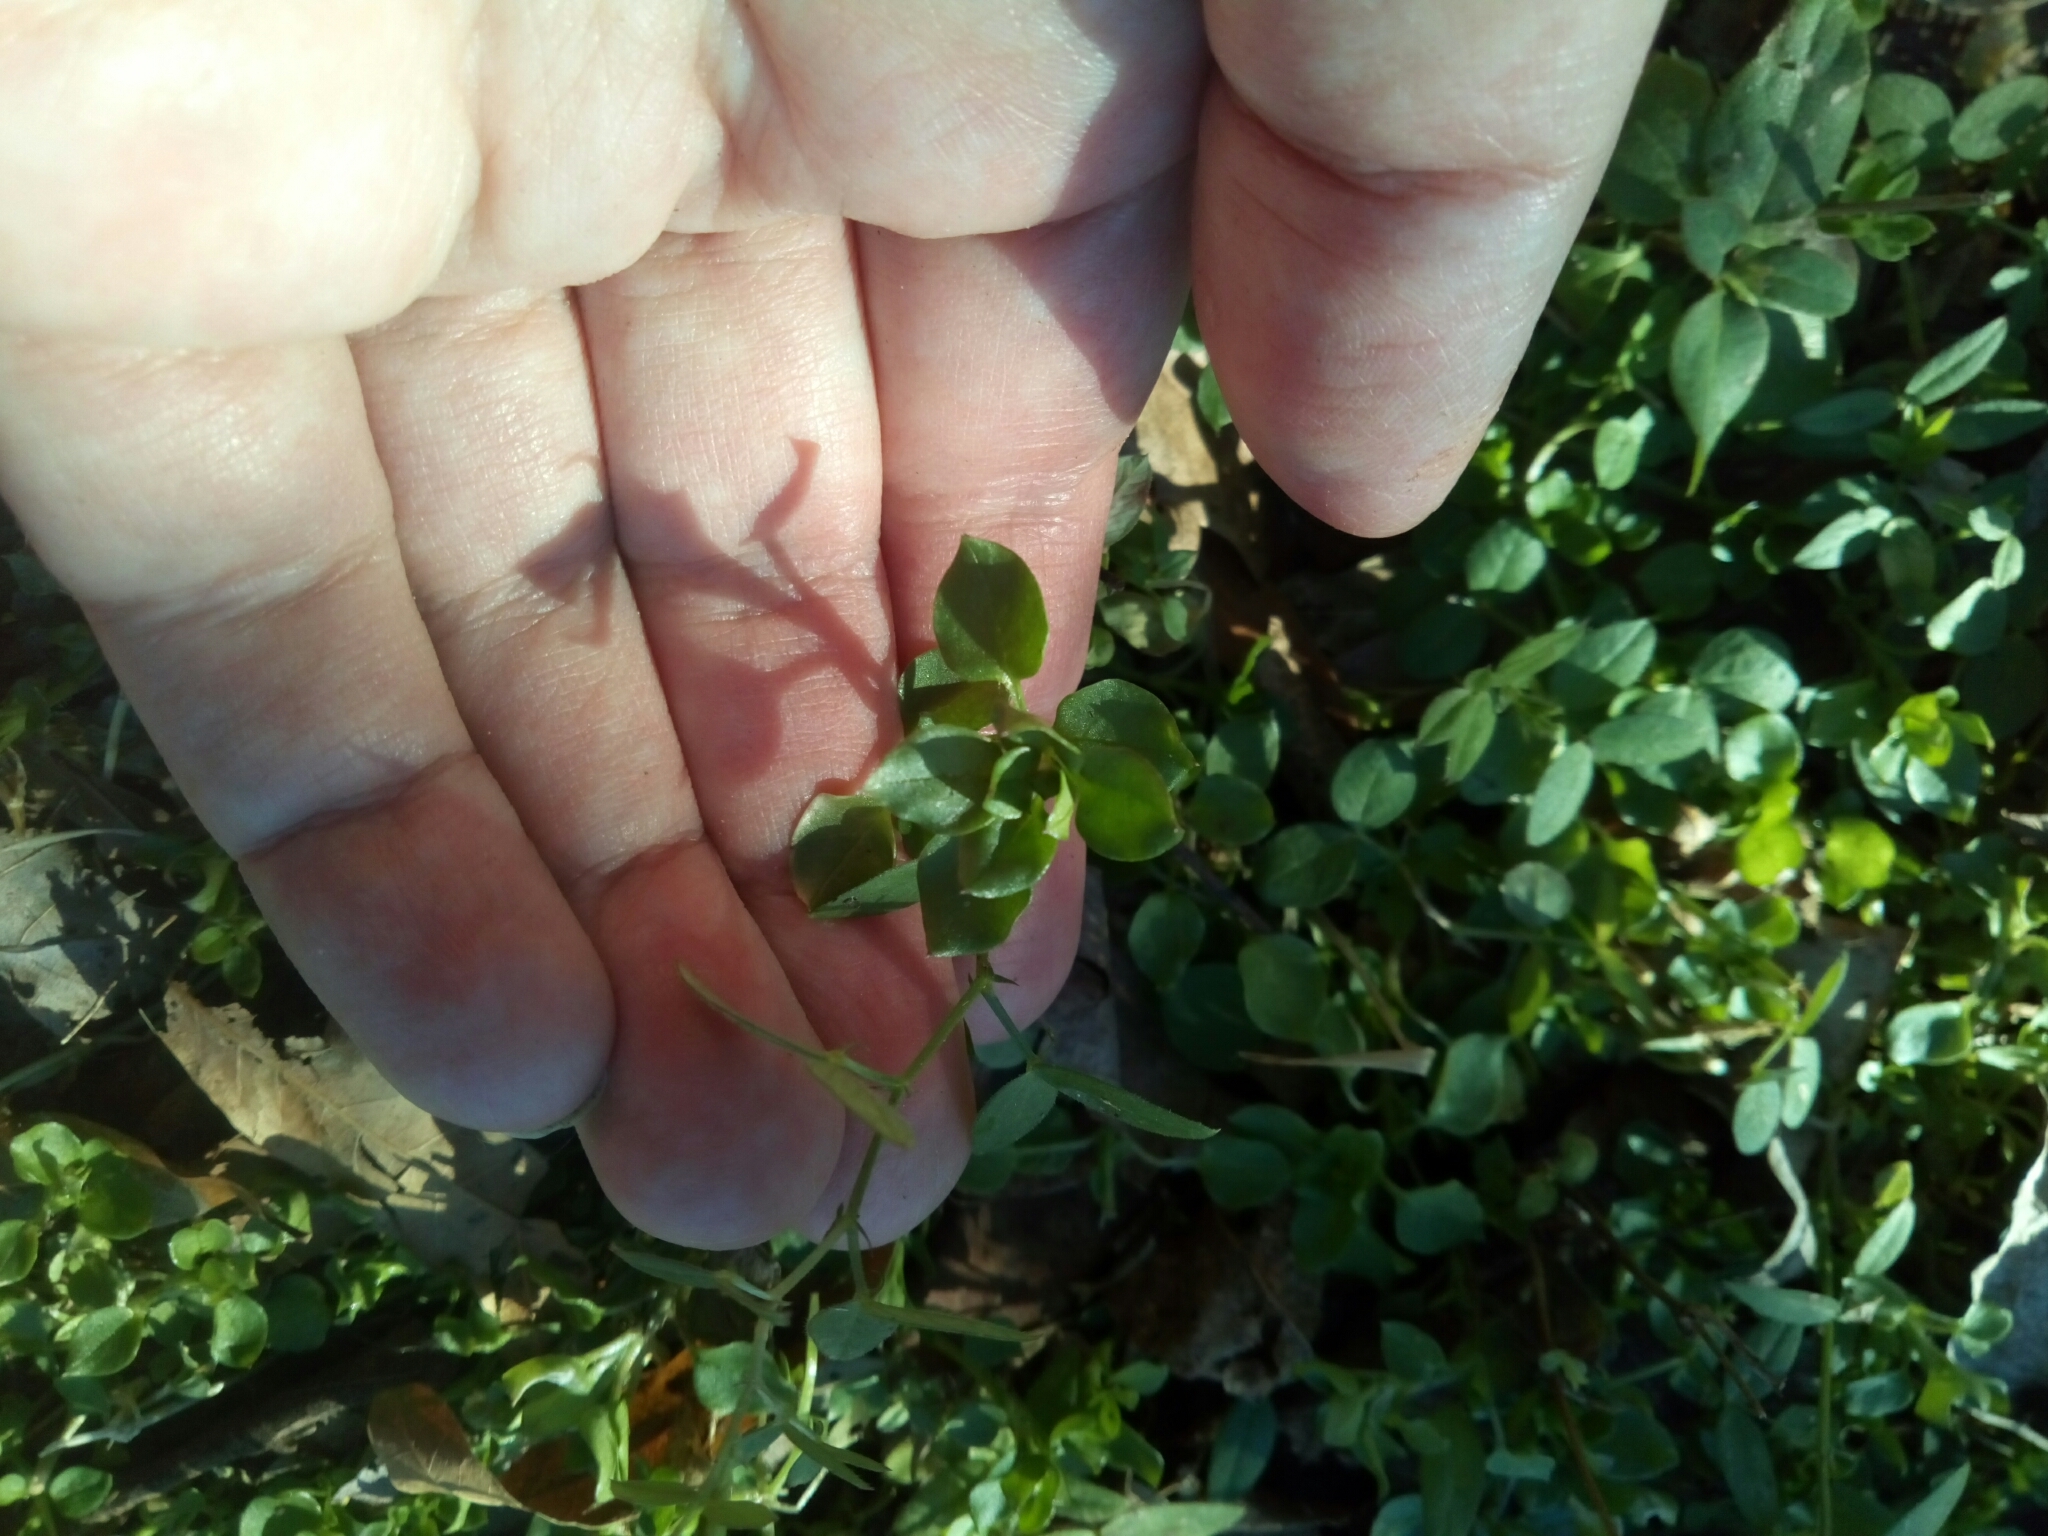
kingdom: Plantae
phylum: Tracheophyta
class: Magnoliopsida
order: Caryophyllales
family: Caryophyllaceae
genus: Stellaria
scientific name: Stellaria media
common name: Common chickweed
